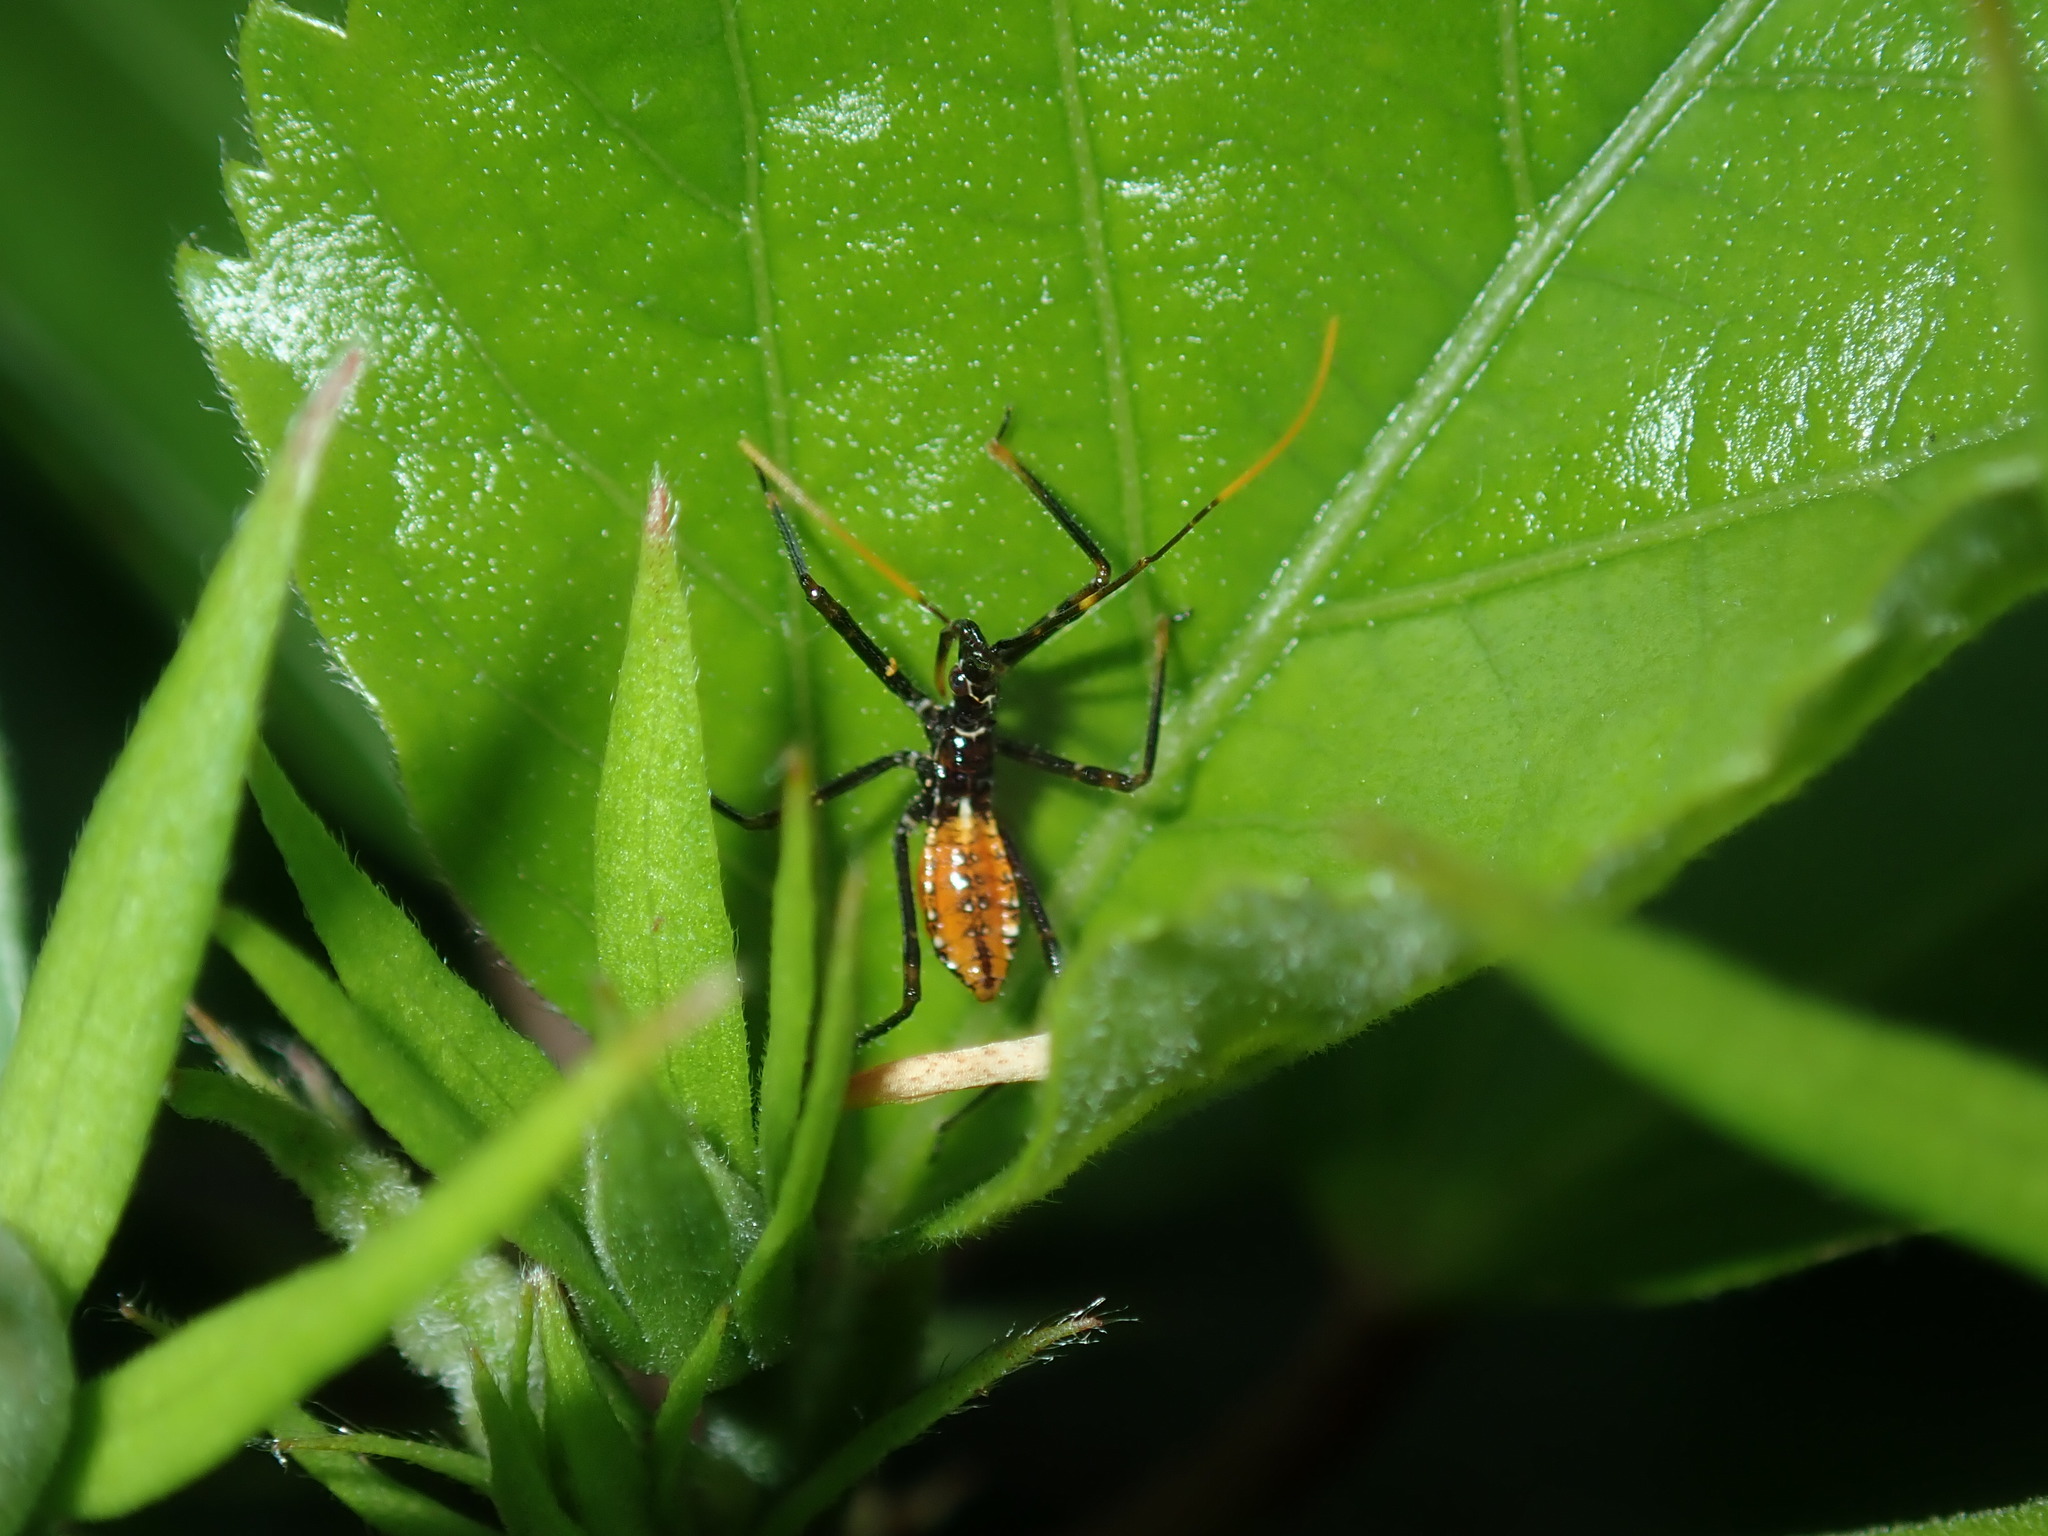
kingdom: Animalia
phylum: Arthropoda
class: Insecta
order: Hemiptera
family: Reduviidae
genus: Pristhesancus
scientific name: Pristhesancus plagipennis
